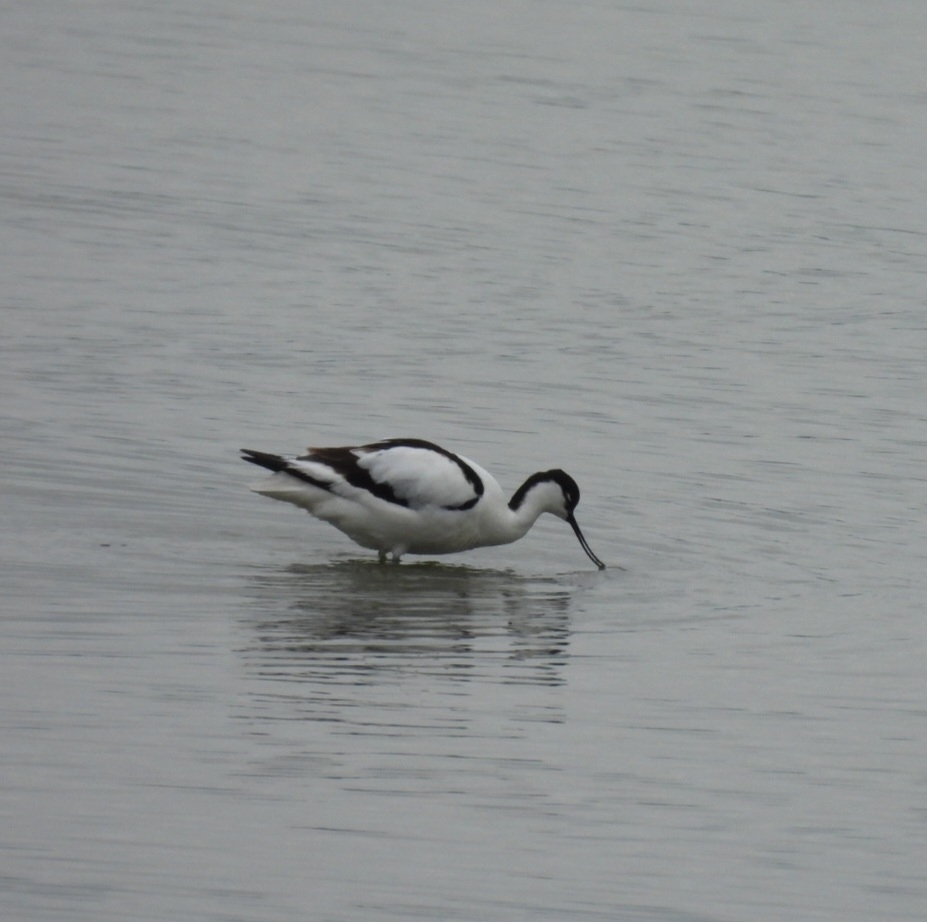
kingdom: Animalia
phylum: Chordata
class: Aves
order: Charadriiformes
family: Recurvirostridae
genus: Recurvirostra
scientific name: Recurvirostra avosetta
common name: Pied avocet
